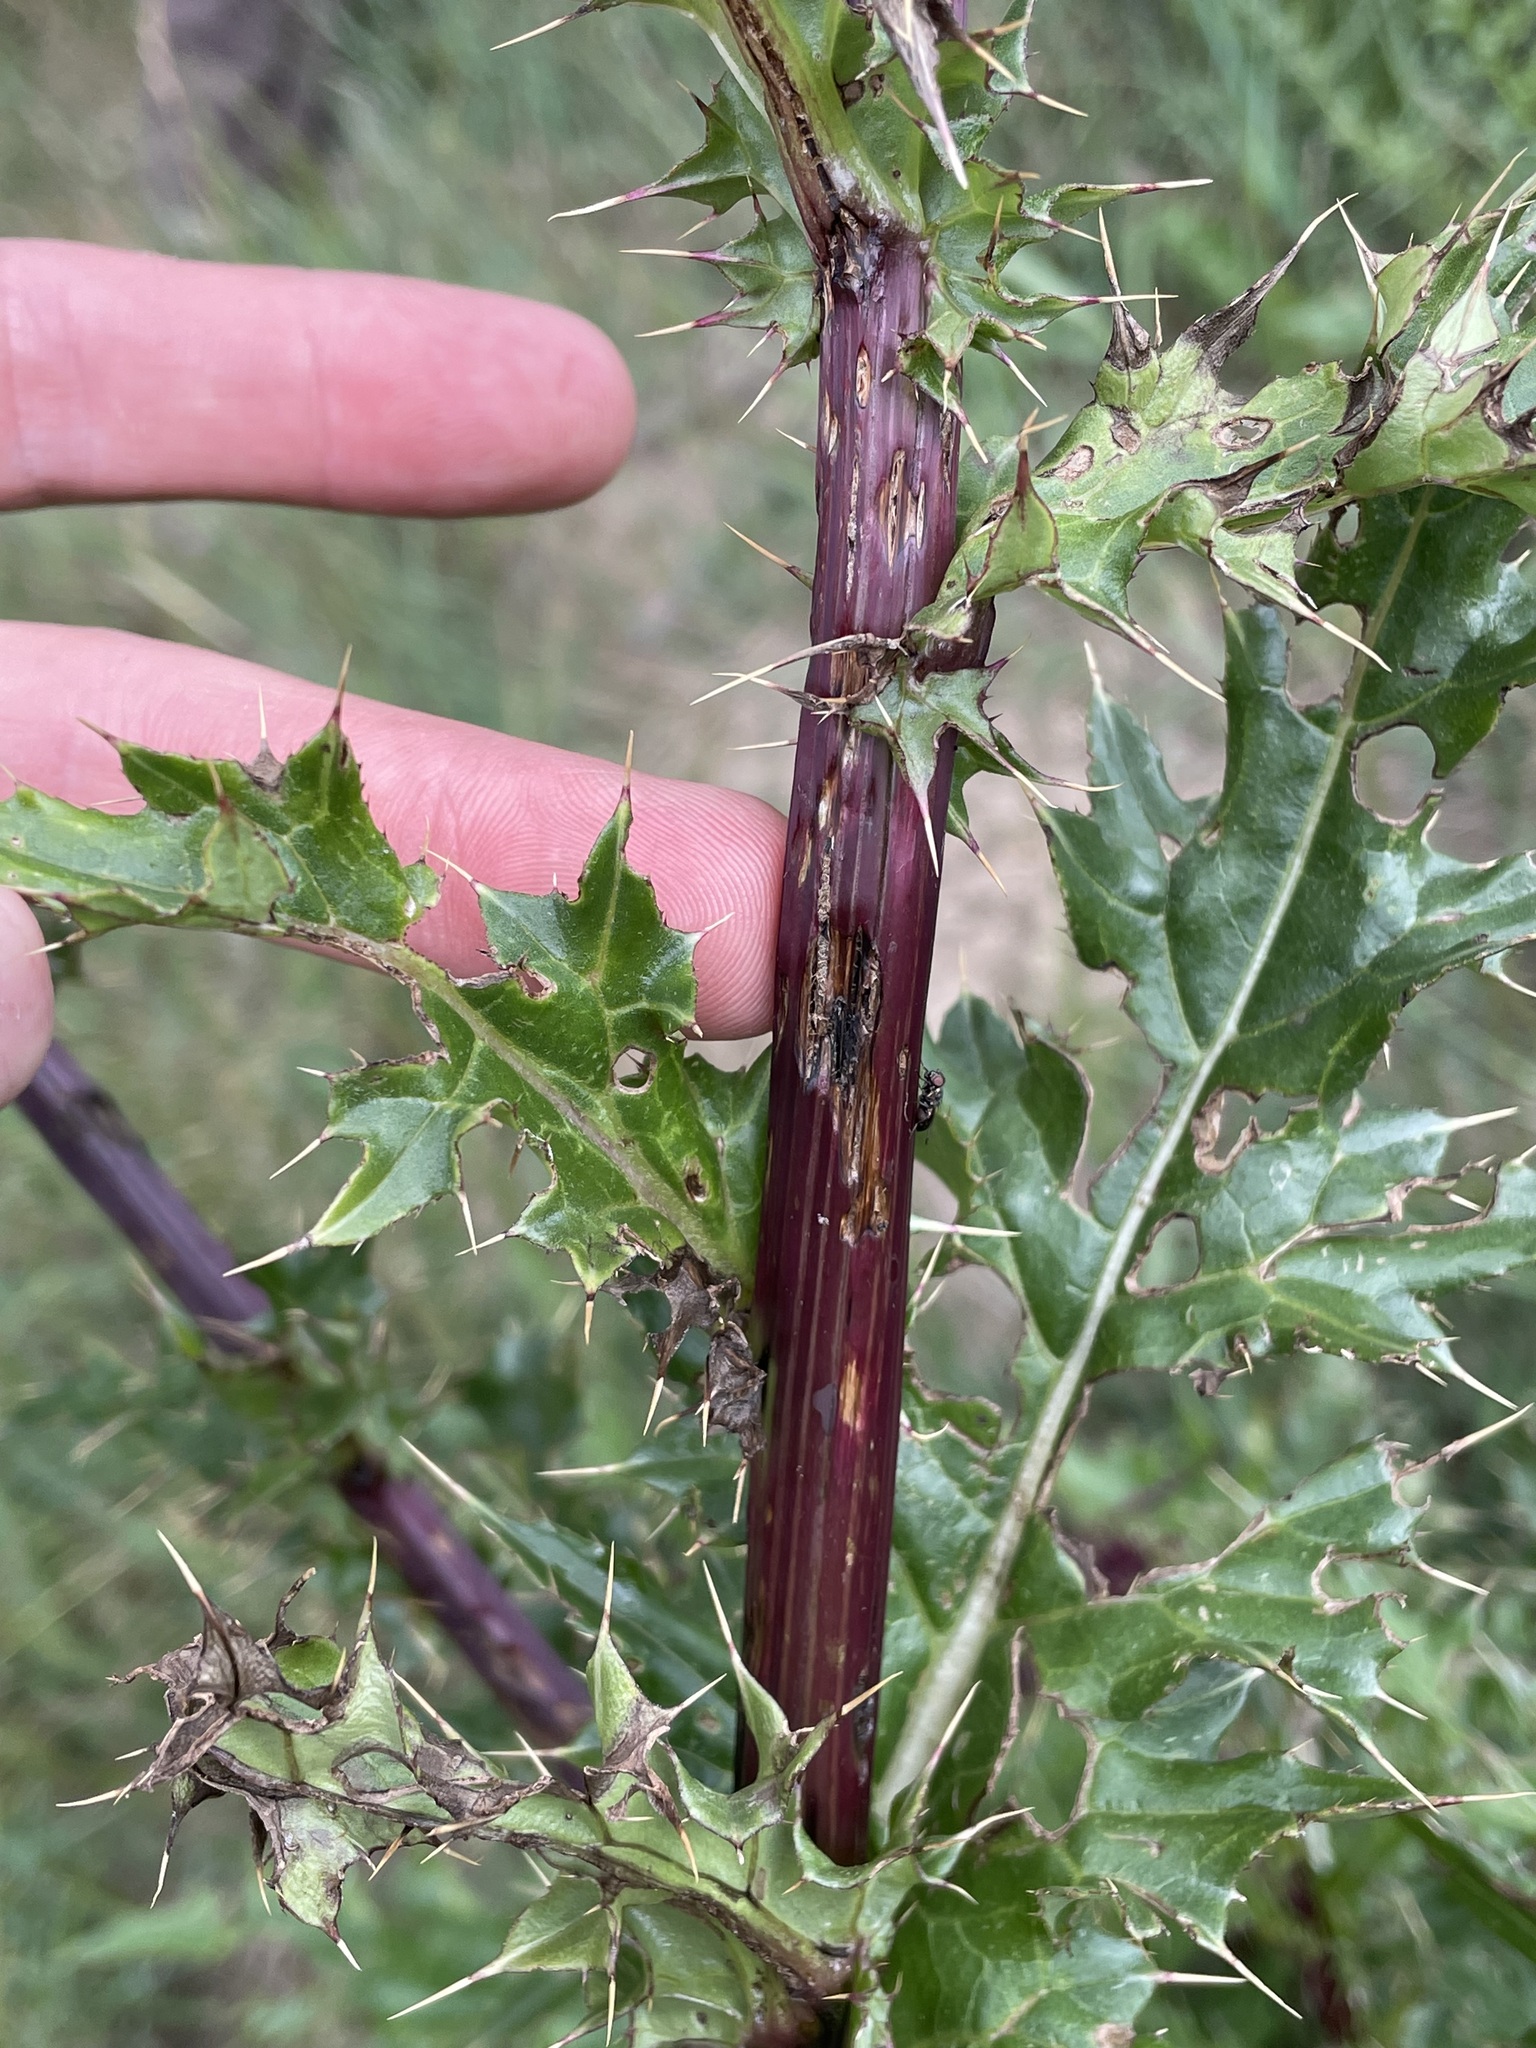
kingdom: Plantae
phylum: Tracheophyta
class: Magnoliopsida
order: Asterales
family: Asteraceae
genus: Cirsium
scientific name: Cirsium vinaceum
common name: Sacramento mountain thistle
